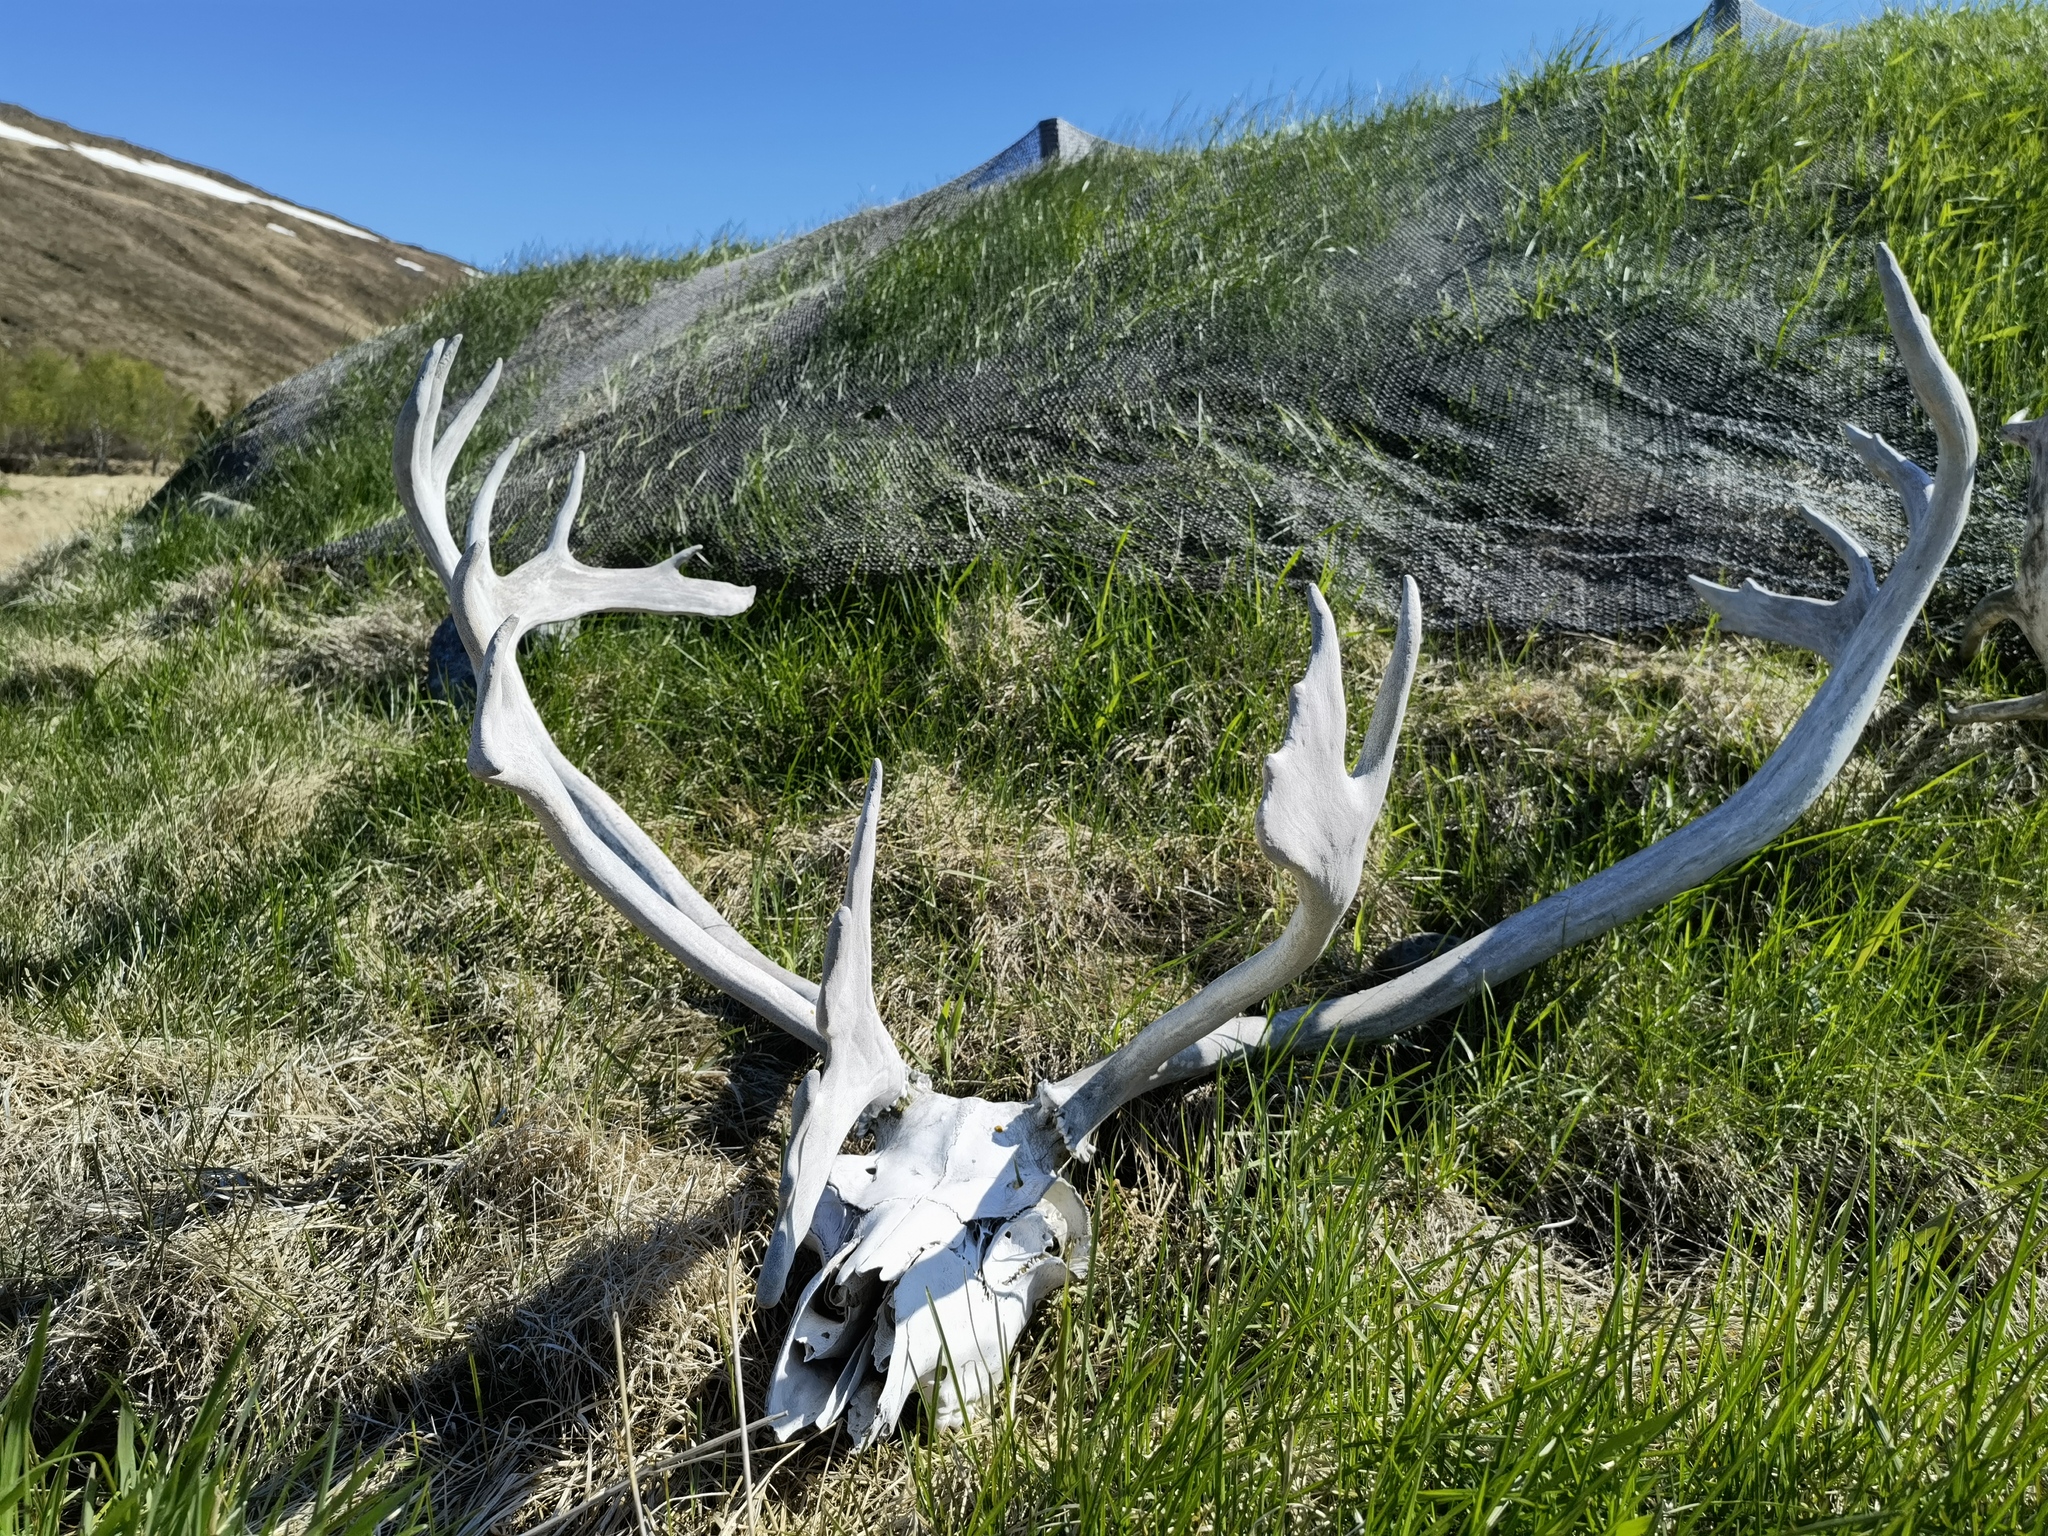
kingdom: Animalia
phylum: Chordata
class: Mammalia
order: Artiodactyla
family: Cervidae
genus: Rangifer
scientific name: Rangifer tarandus
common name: Reindeer
